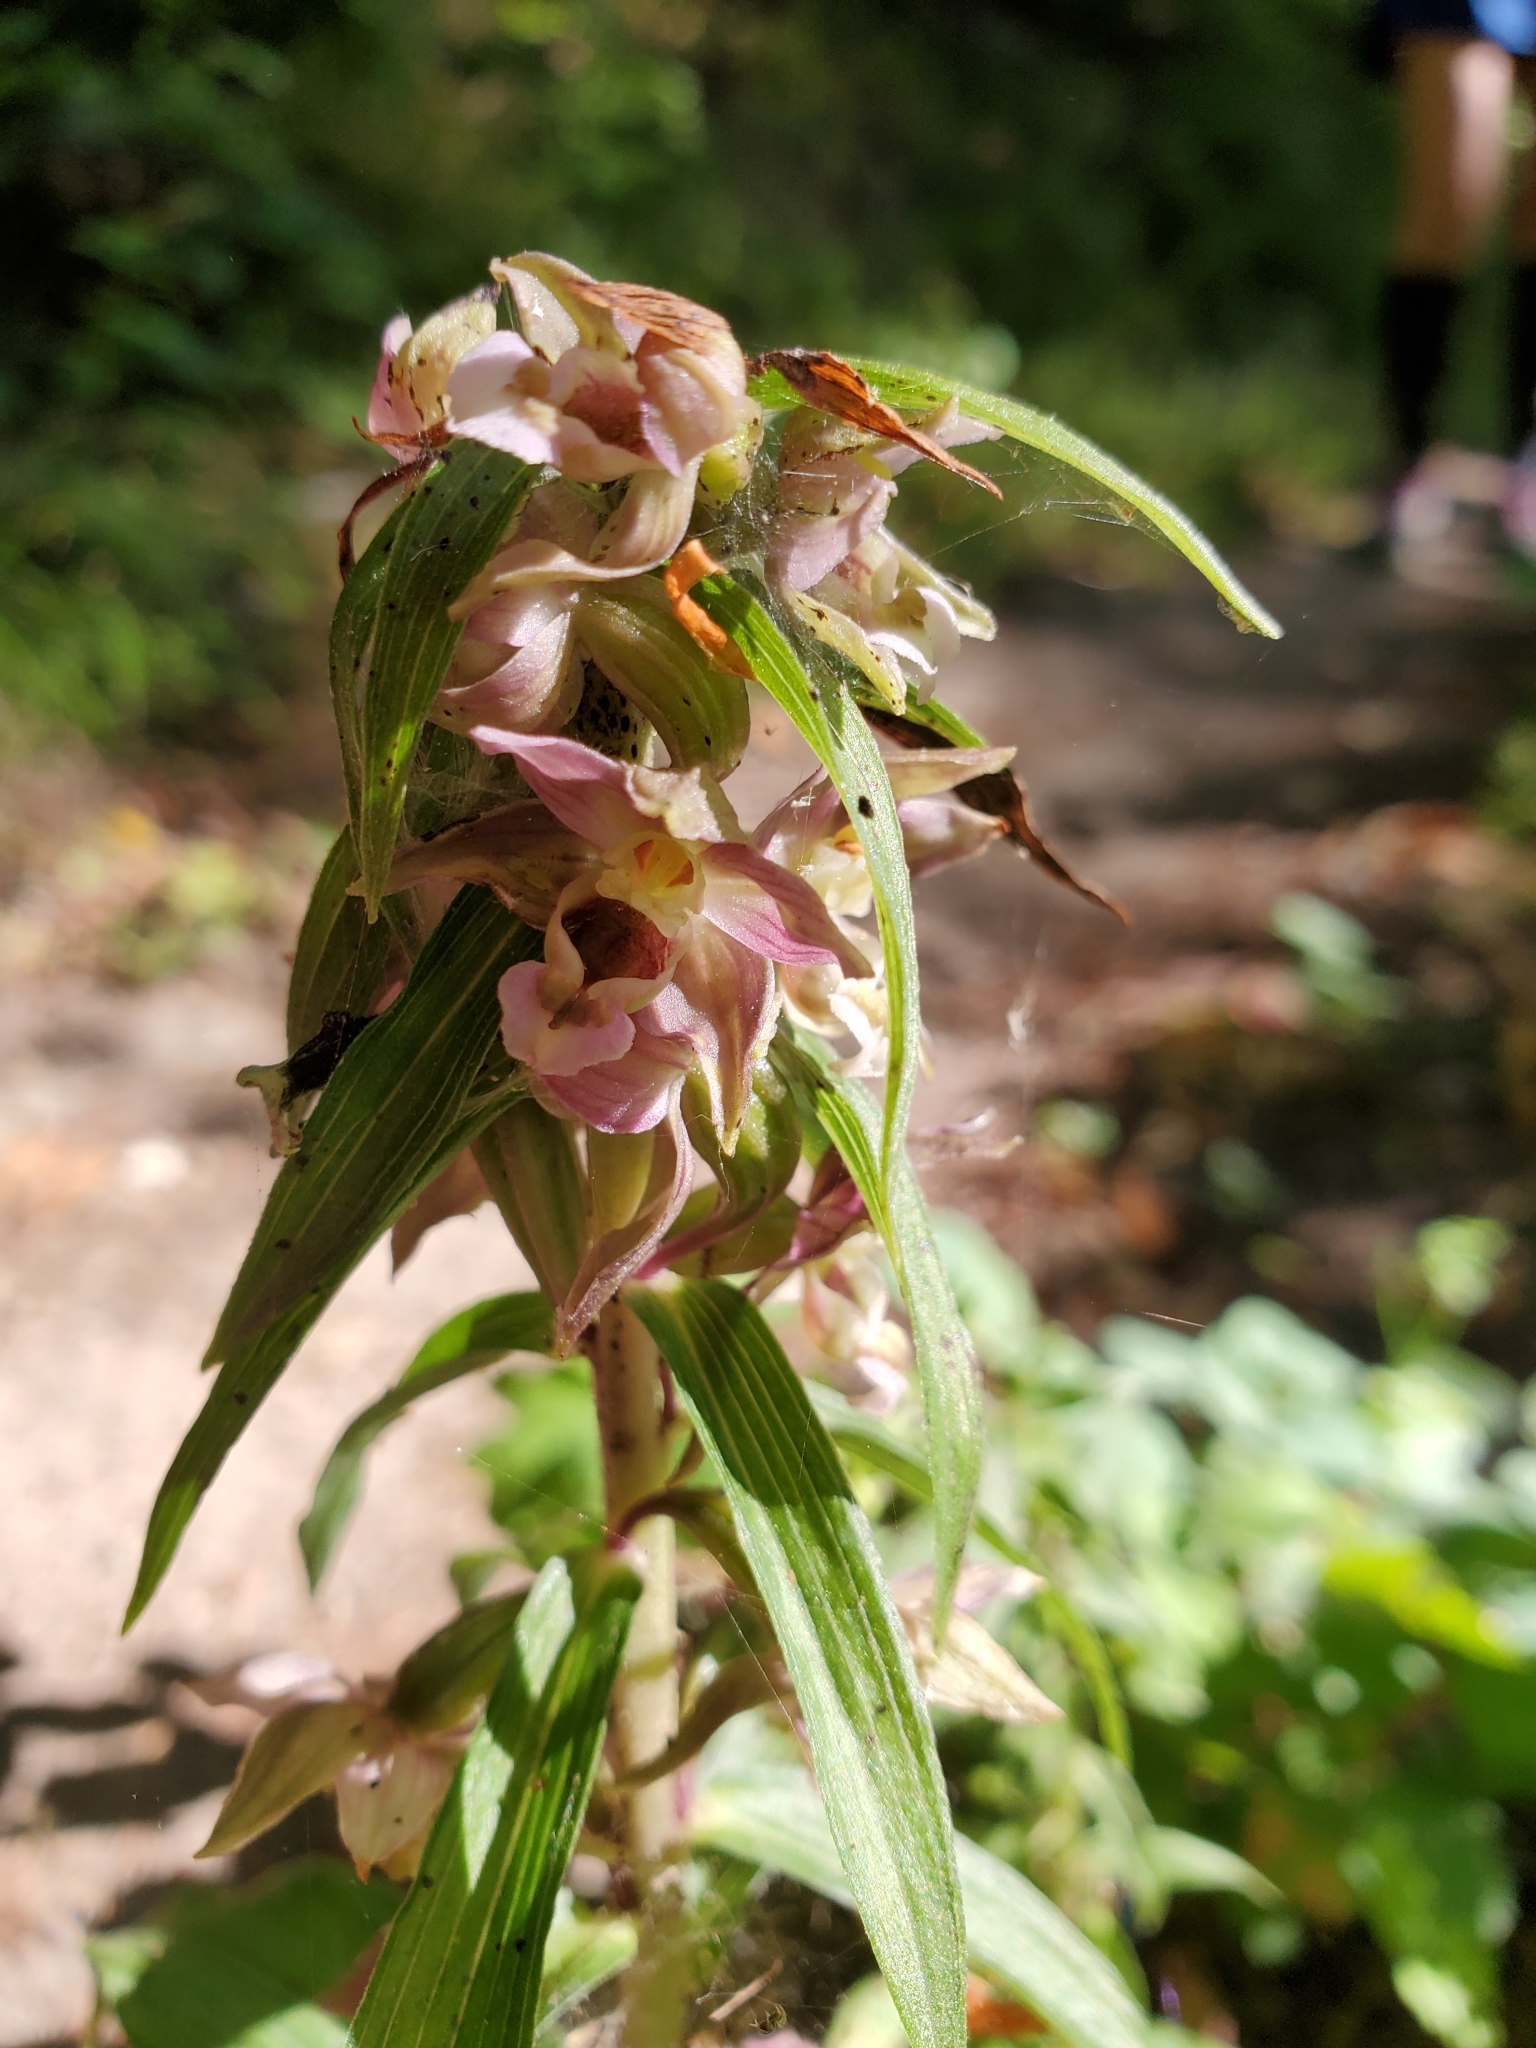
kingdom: Plantae
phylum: Tracheophyta
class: Liliopsida
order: Asparagales
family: Orchidaceae
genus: Epipactis
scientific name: Epipactis helleborine
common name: Broad-leaved helleborine
